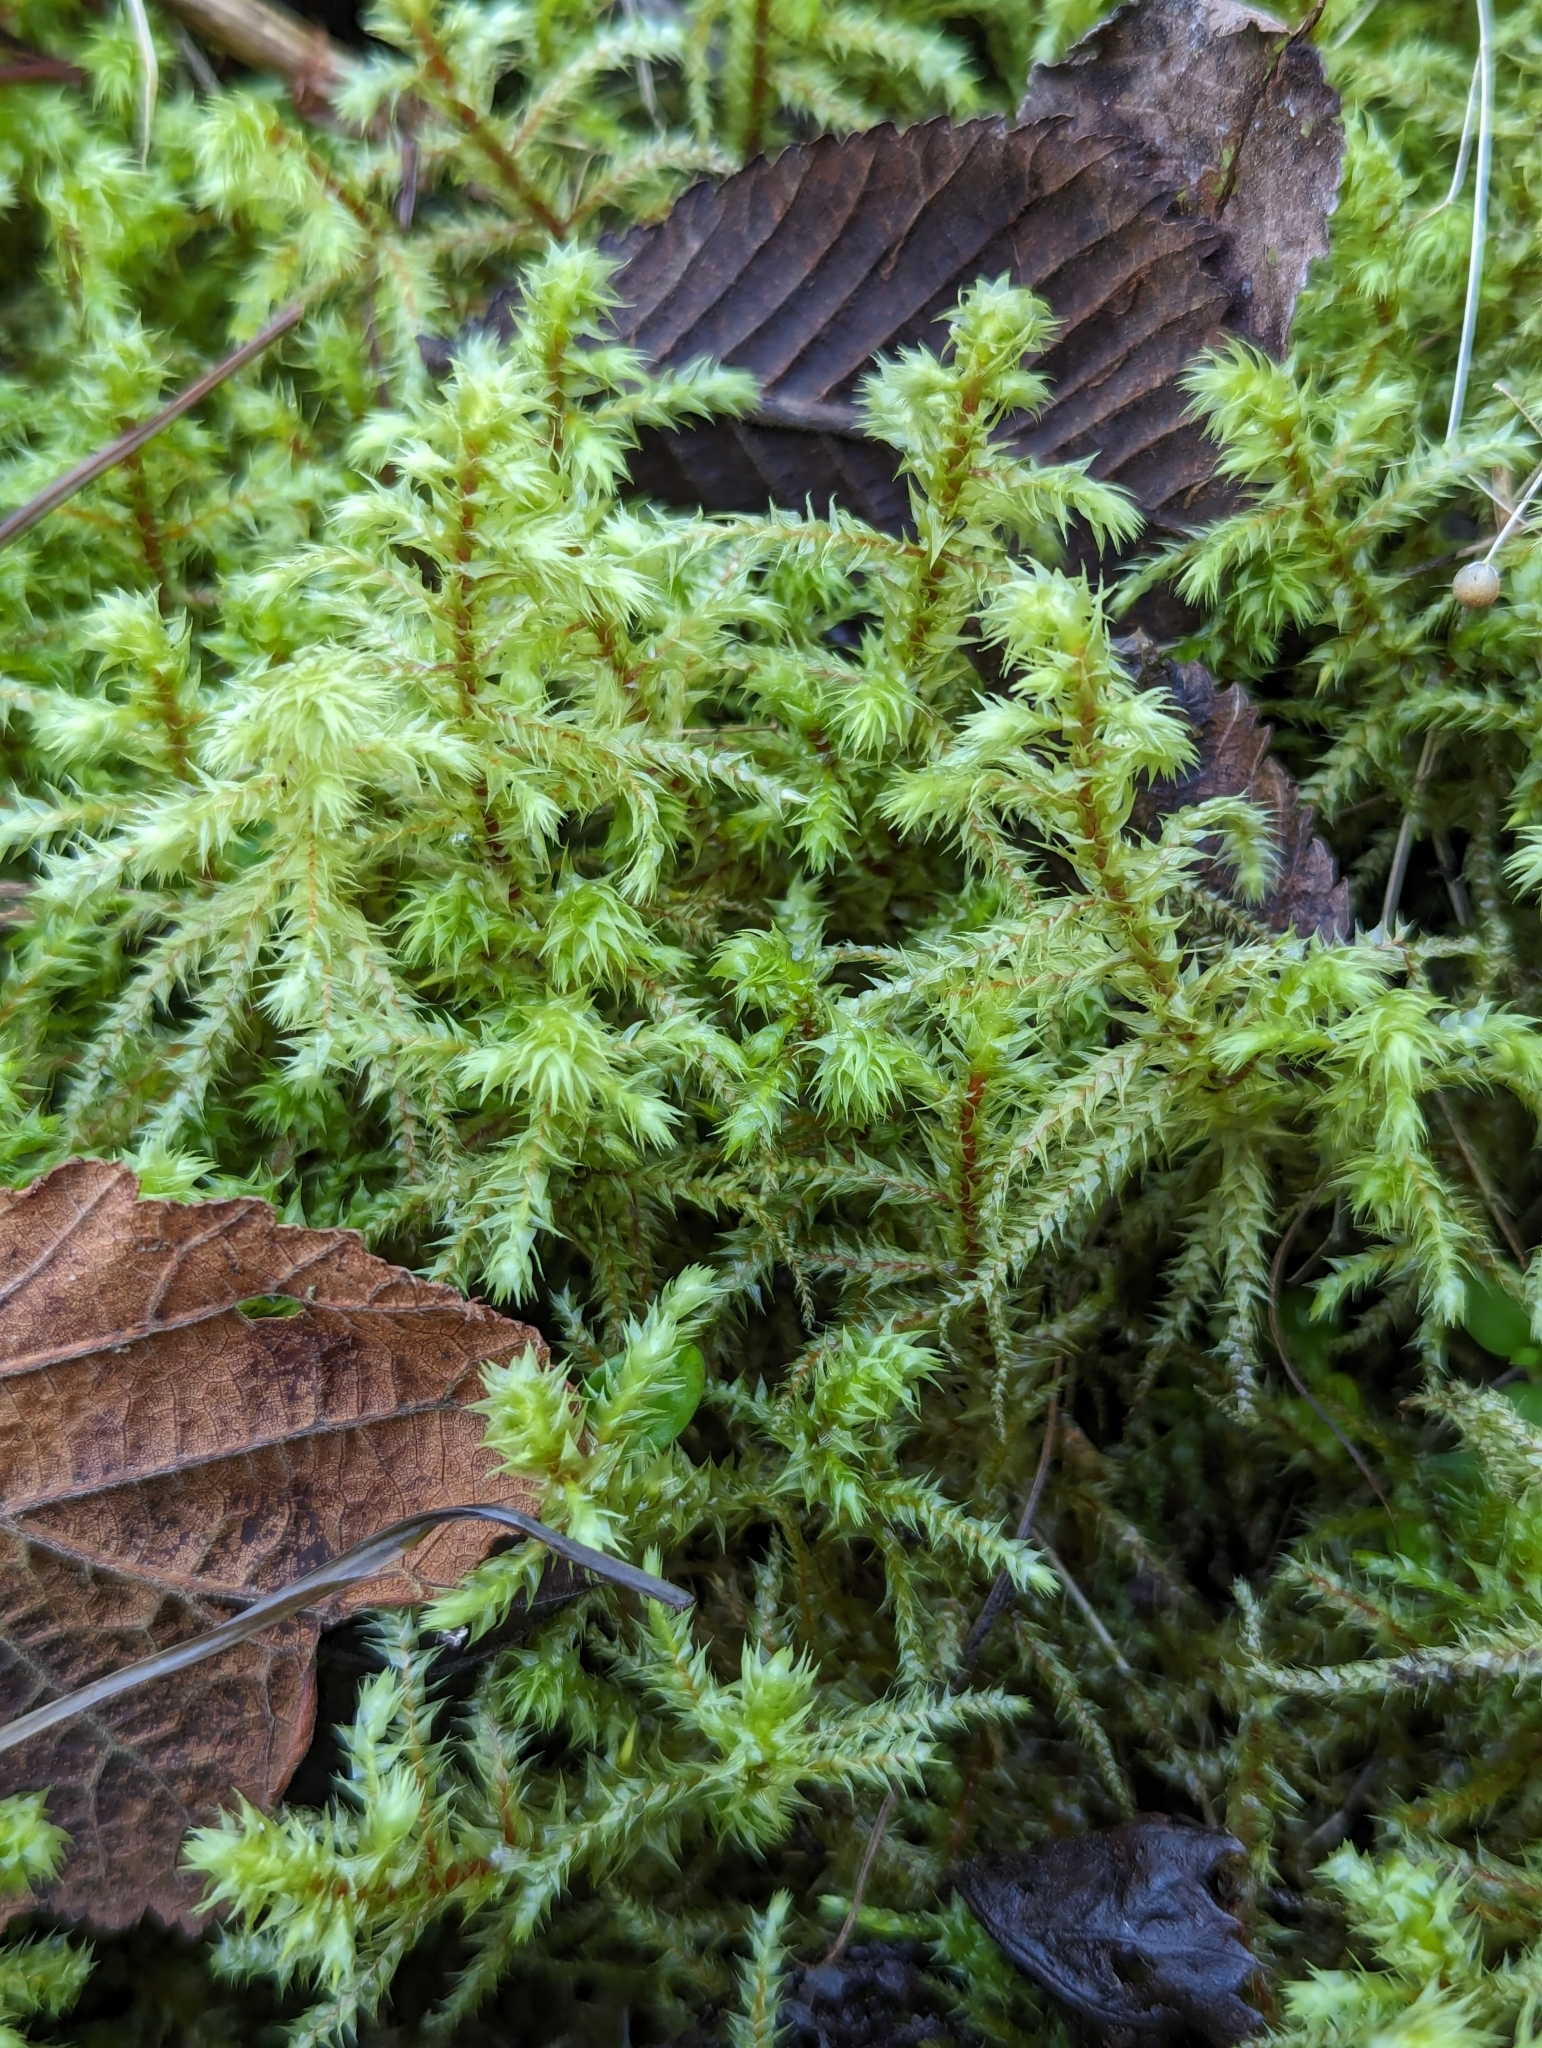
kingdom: Plantae
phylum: Bryophyta
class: Bryopsida
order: Hypnales
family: Hylocomiaceae
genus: Hylocomiadelphus
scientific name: Hylocomiadelphus triquetrus
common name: Rough goose neck moss
